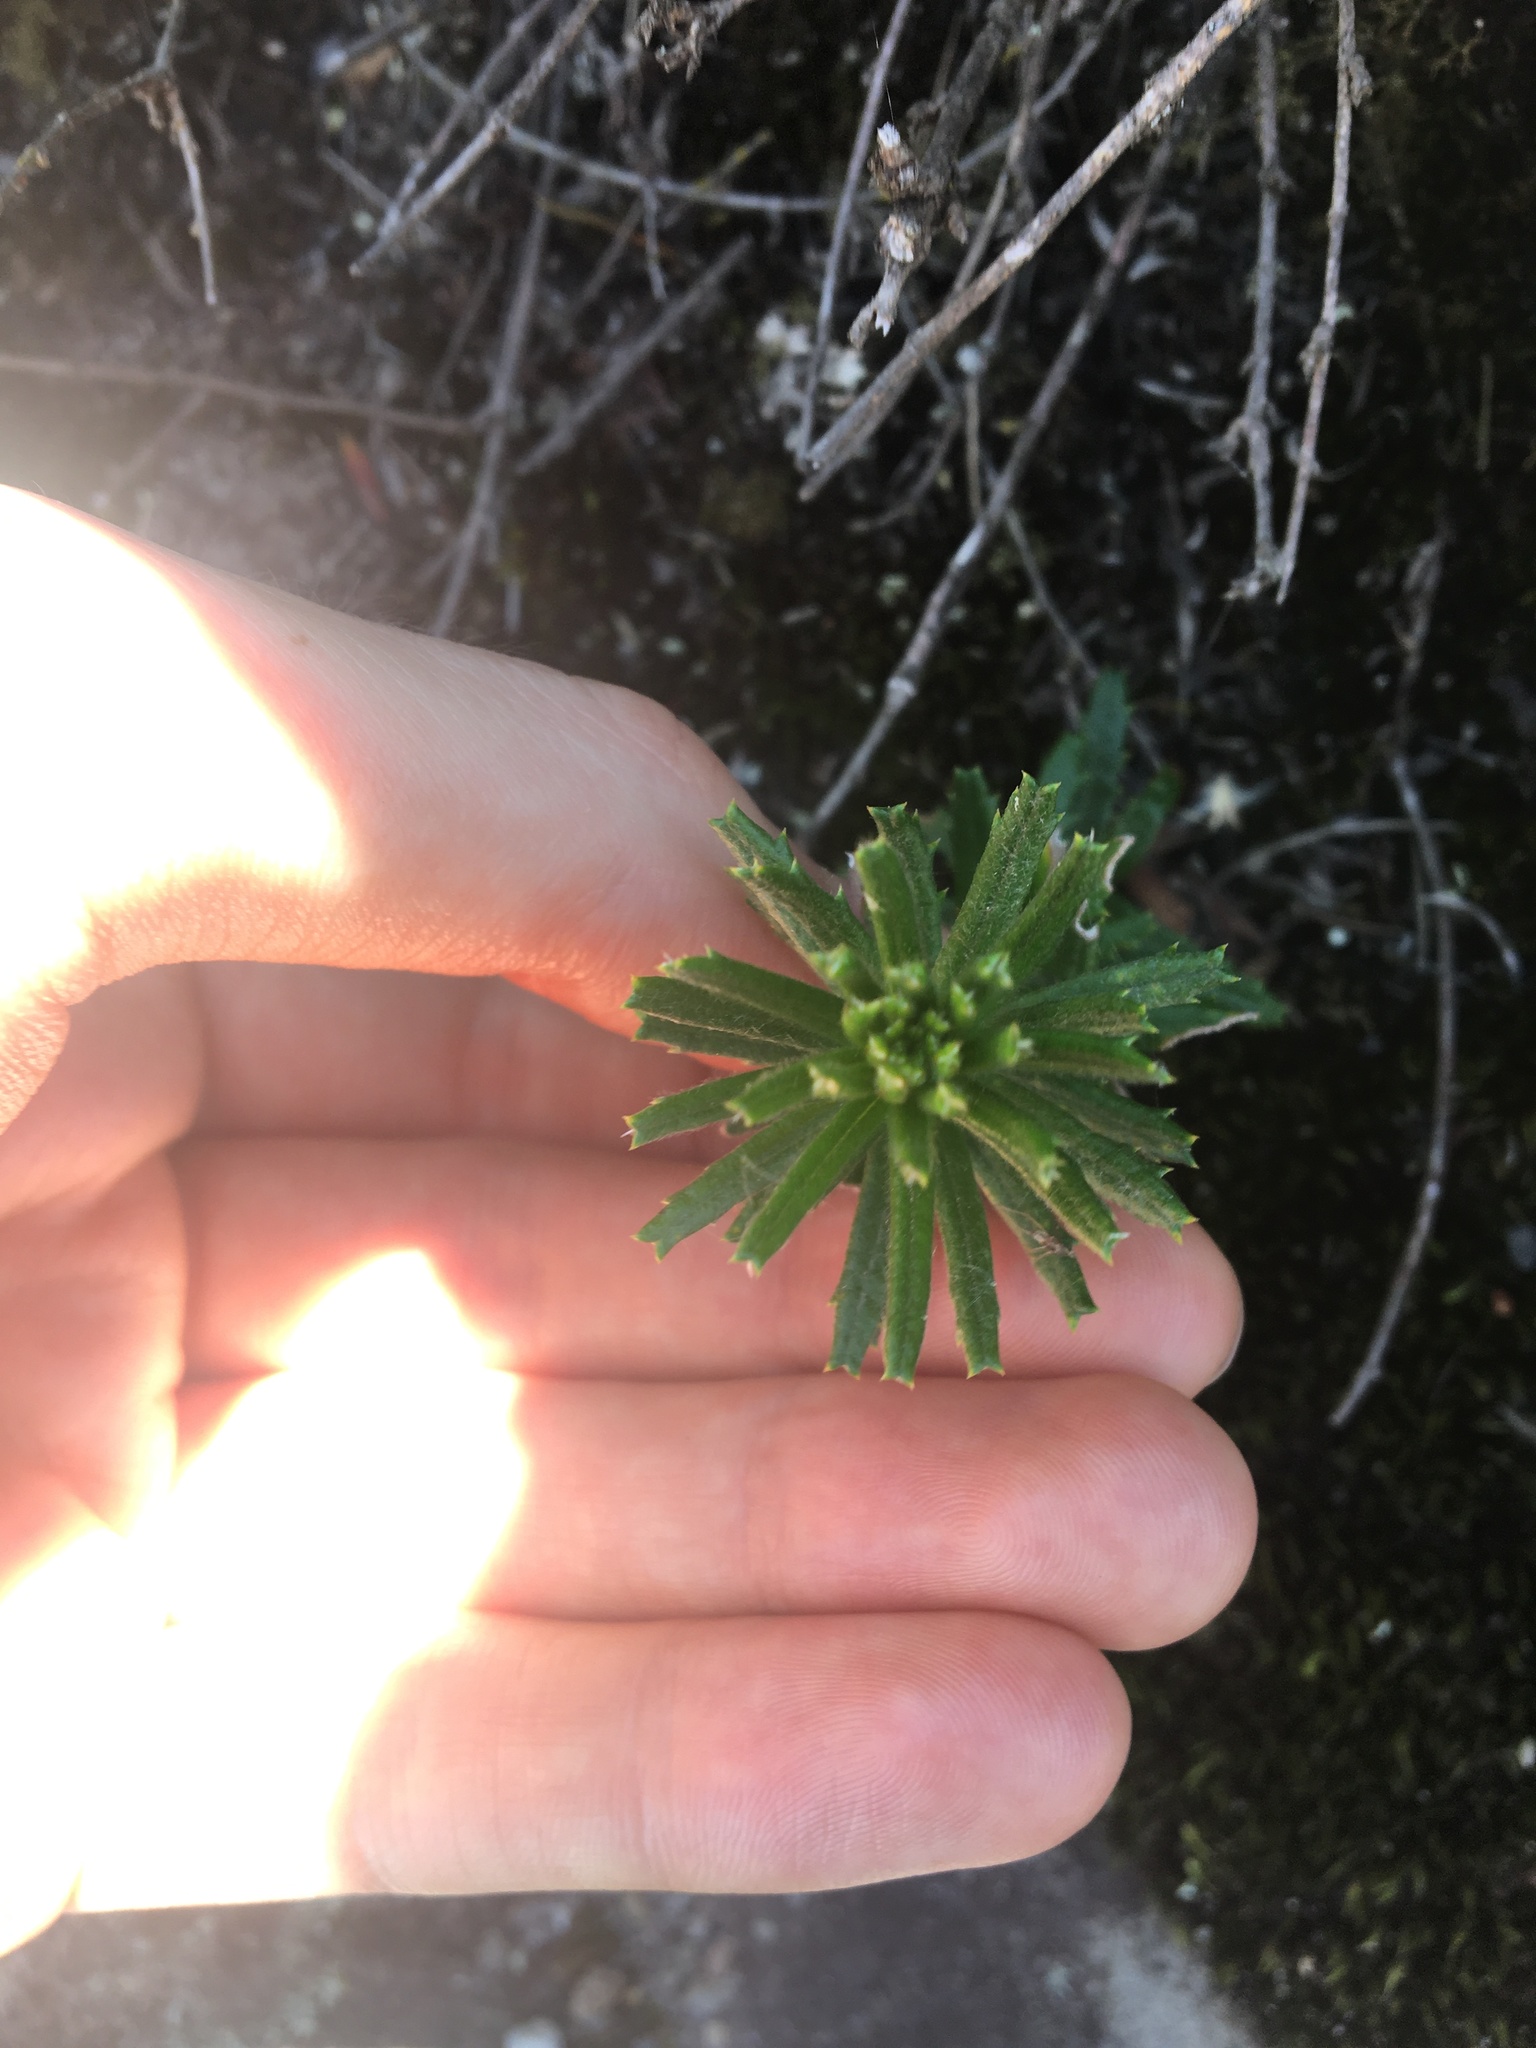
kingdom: Plantae
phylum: Tracheophyta
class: Magnoliopsida
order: Proteales
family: Proteaceae
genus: Banksia
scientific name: Banksia ericifolia
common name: Heath-leaf banksia
